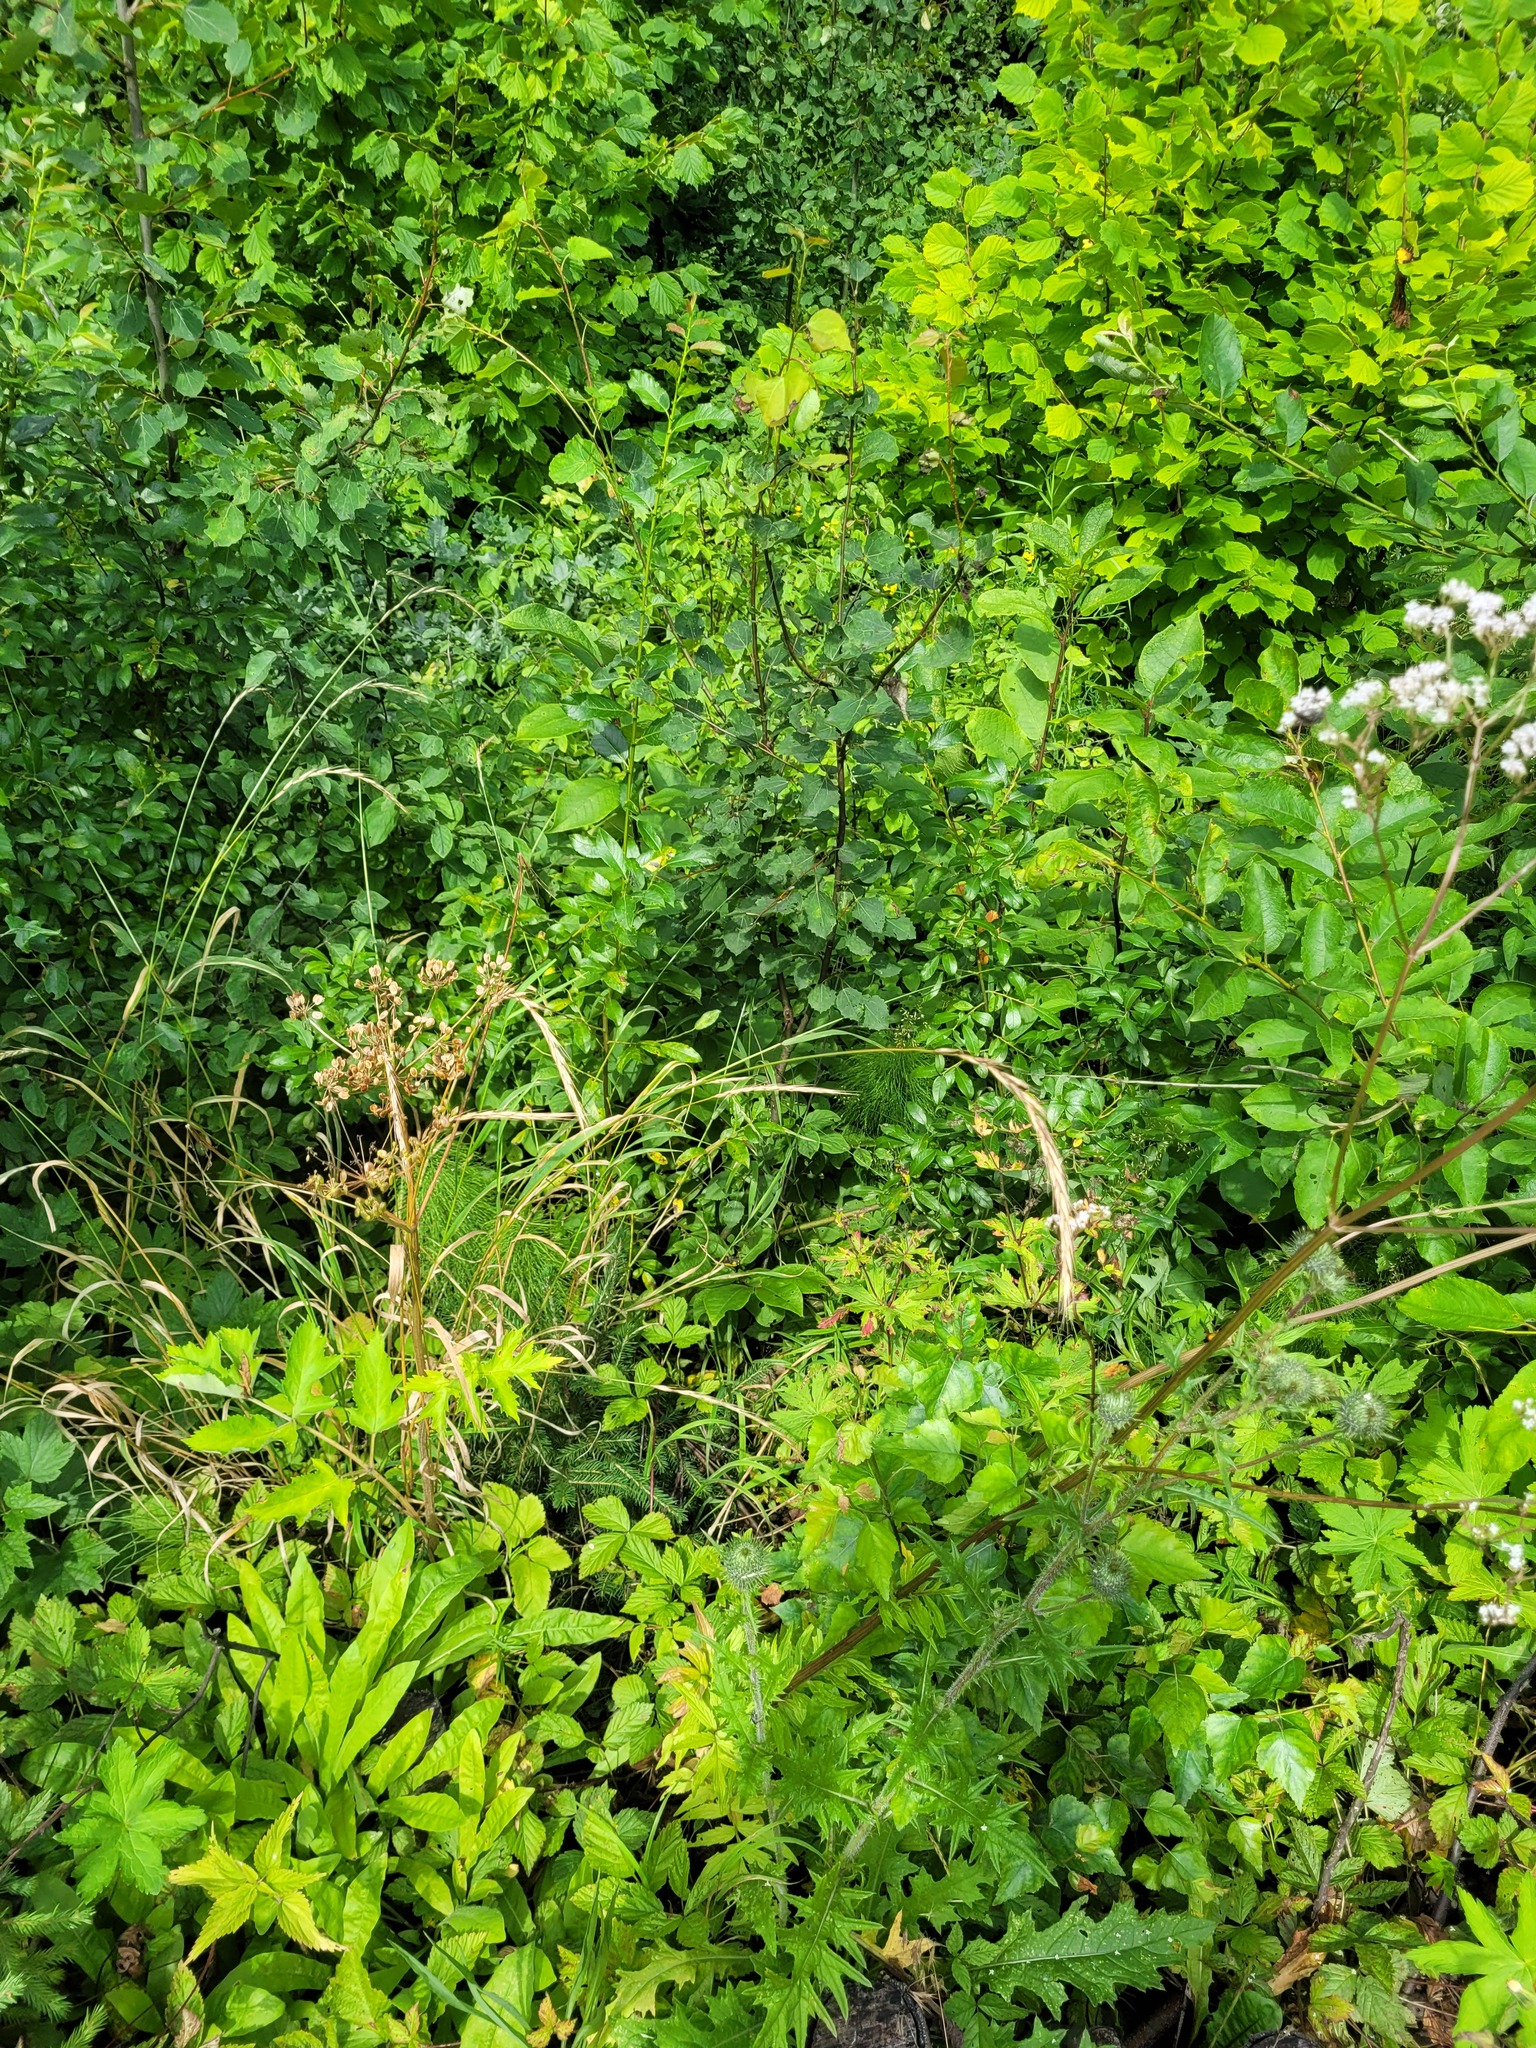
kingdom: Plantae
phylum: Tracheophyta
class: Liliopsida
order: Poales
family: Poaceae
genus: Elymus
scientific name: Elymus caninus
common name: Bearded couch
